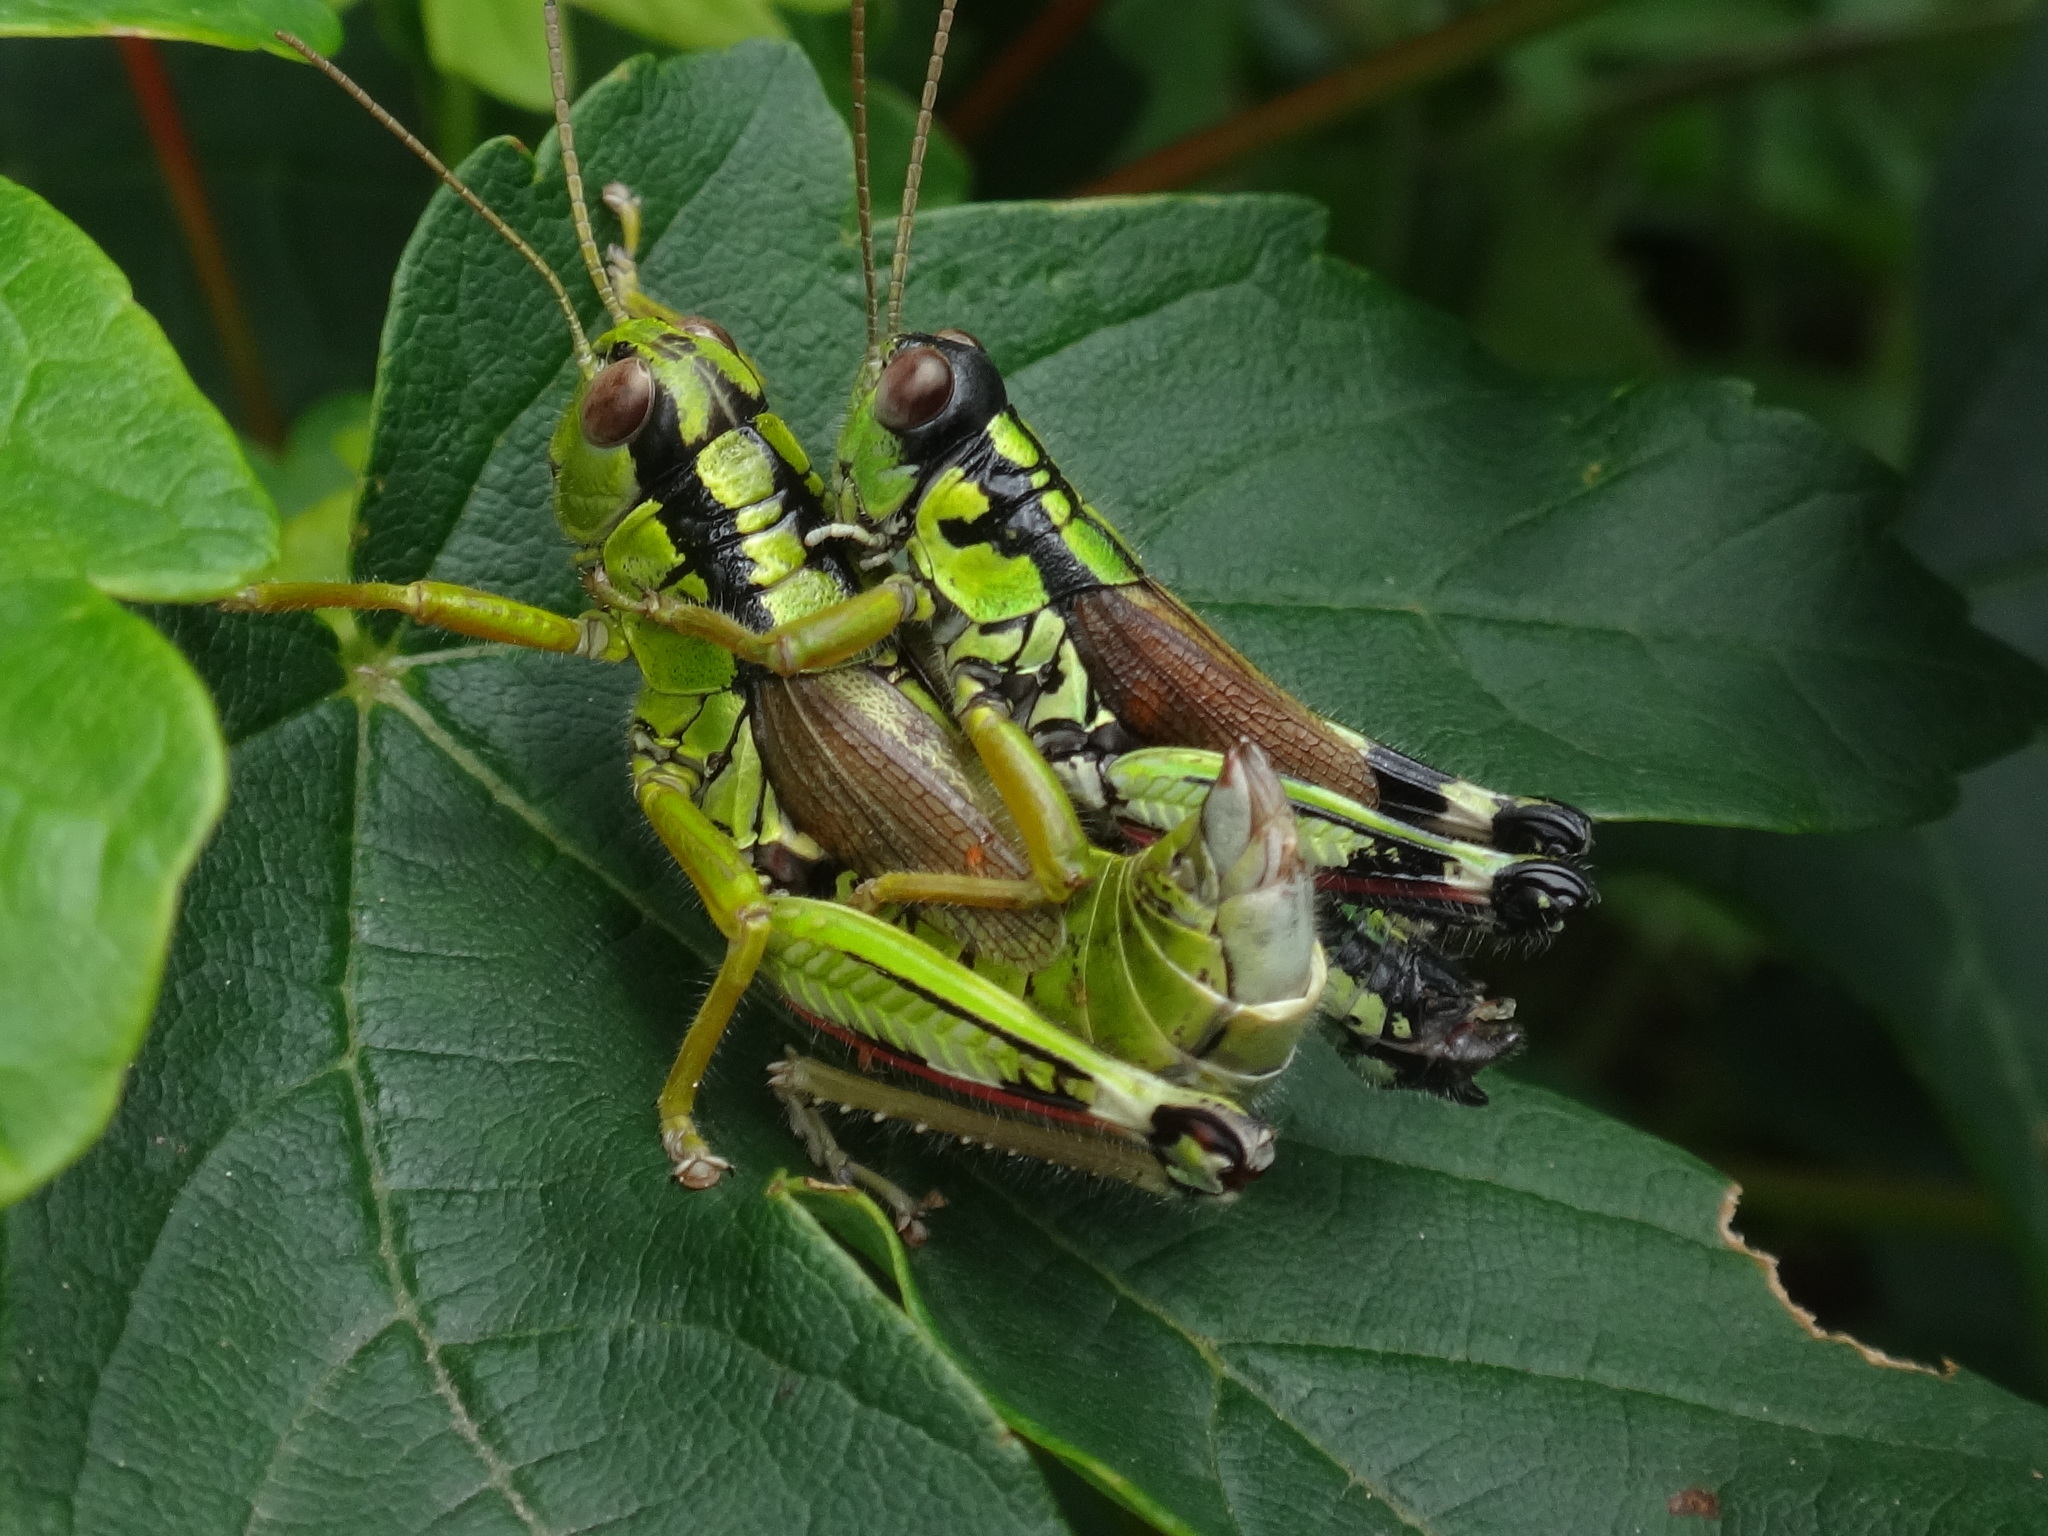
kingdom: Animalia
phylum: Arthropoda
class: Insecta
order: Orthoptera
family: Acrididae
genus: Miramella
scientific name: Miramella alpina
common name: Green mountain grasshopper
